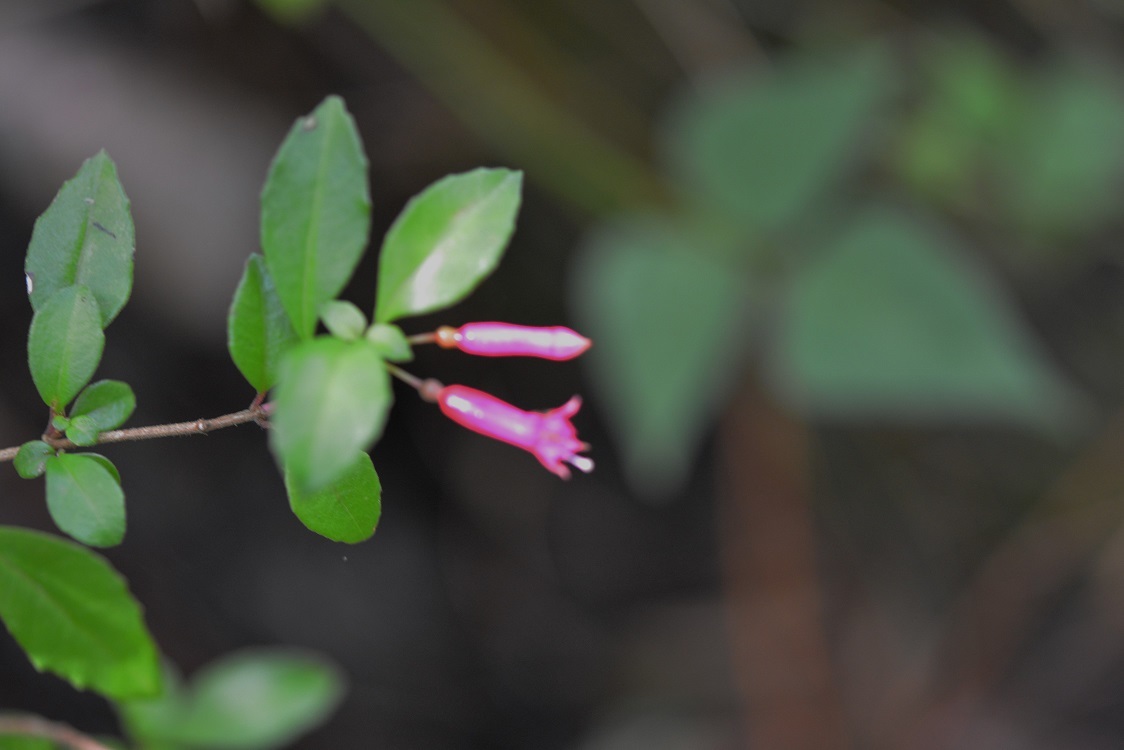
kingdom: Plantae
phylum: Tracheophyta
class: Magnoliopsida
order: Myrtales
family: Onagraceae
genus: Fuchsia
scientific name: Fuchsia microphylla
